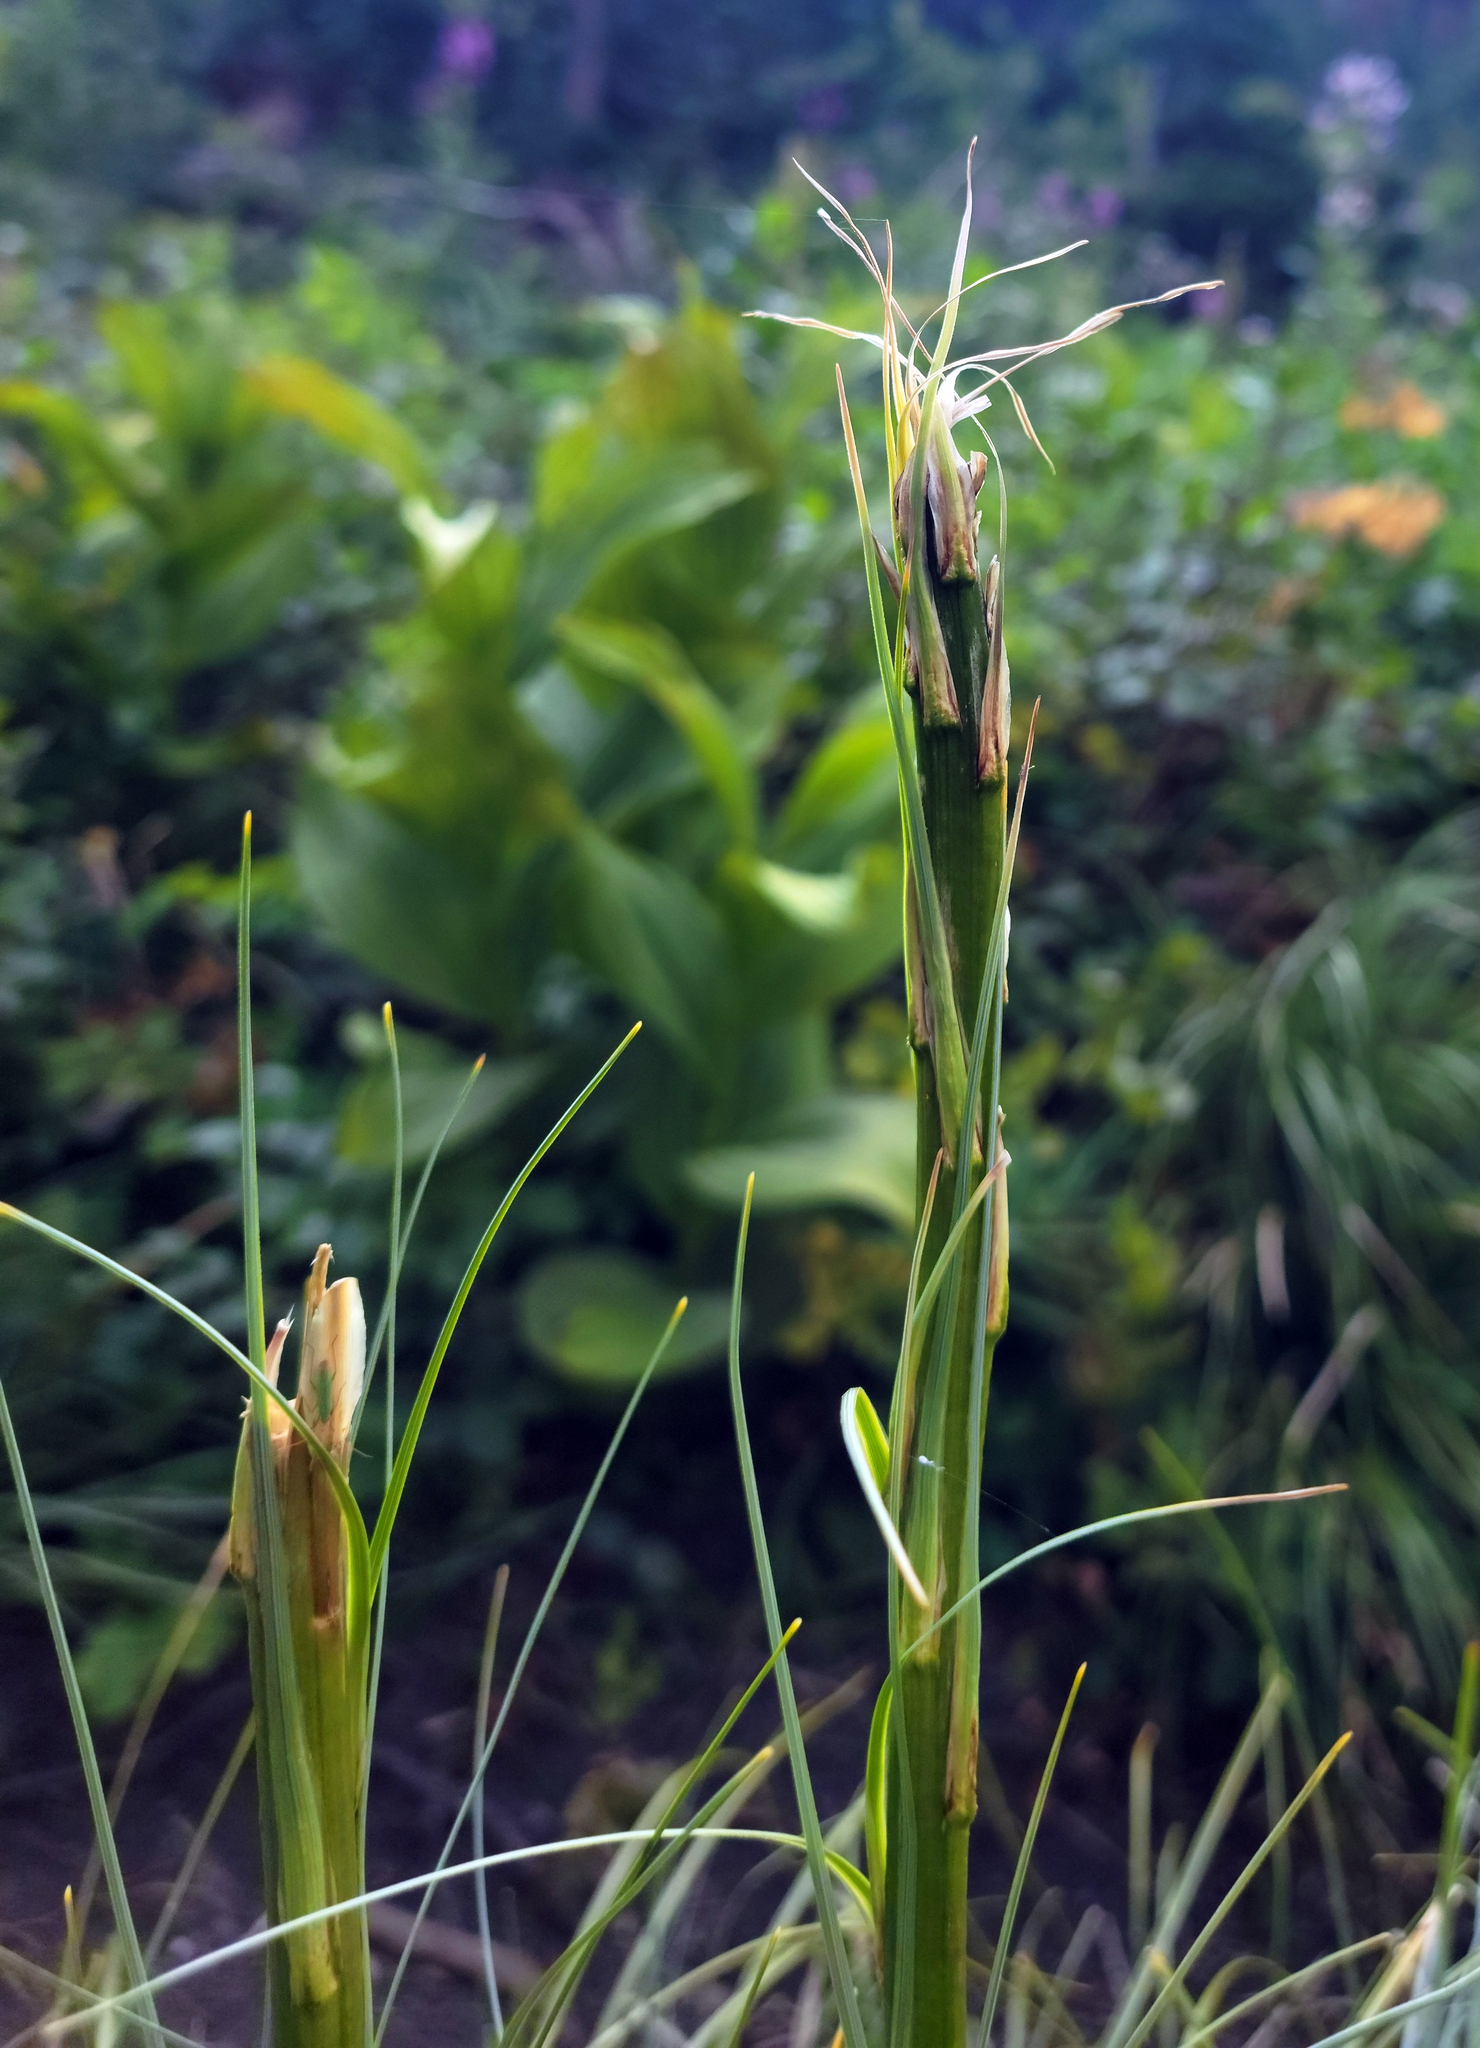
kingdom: Plantae
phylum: Tracheophyta
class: Liliopsida
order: Liliales
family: Melanthiaceae
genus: Xerophyllum
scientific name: Xerophyllum tenax
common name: Bear-grass
